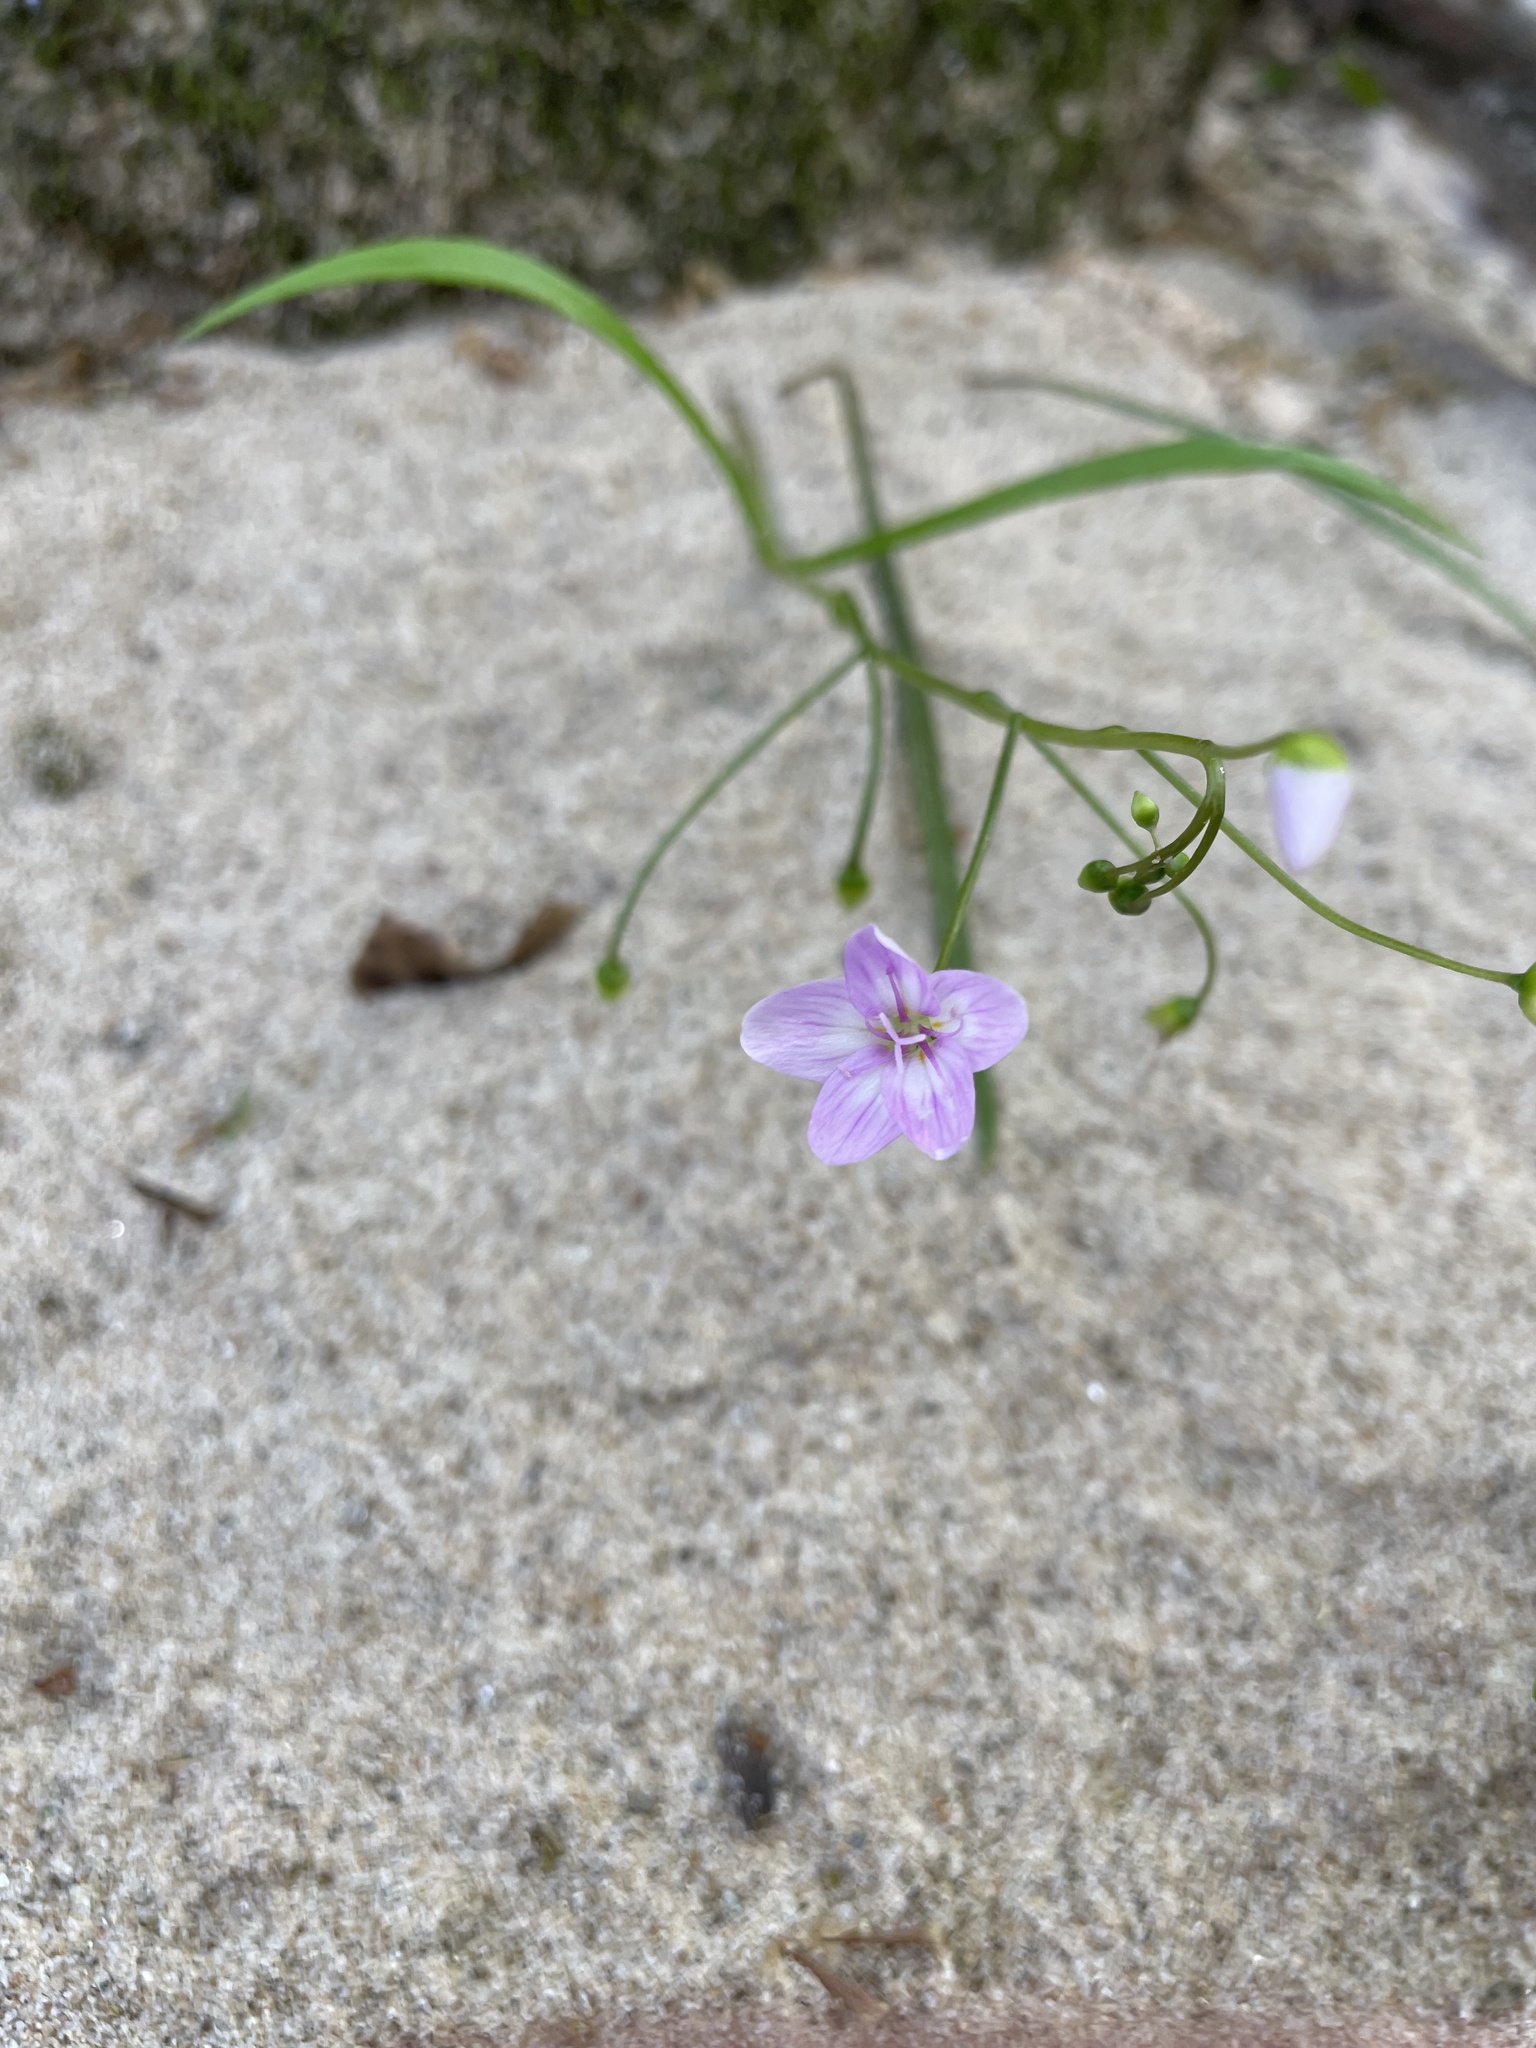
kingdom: Plantae
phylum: Tracheophyta
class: Magnoliopsida
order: Caryophyllales
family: Montiaceae
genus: Claytonia
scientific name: Claytonia virginica
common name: Virginia springbeauty
